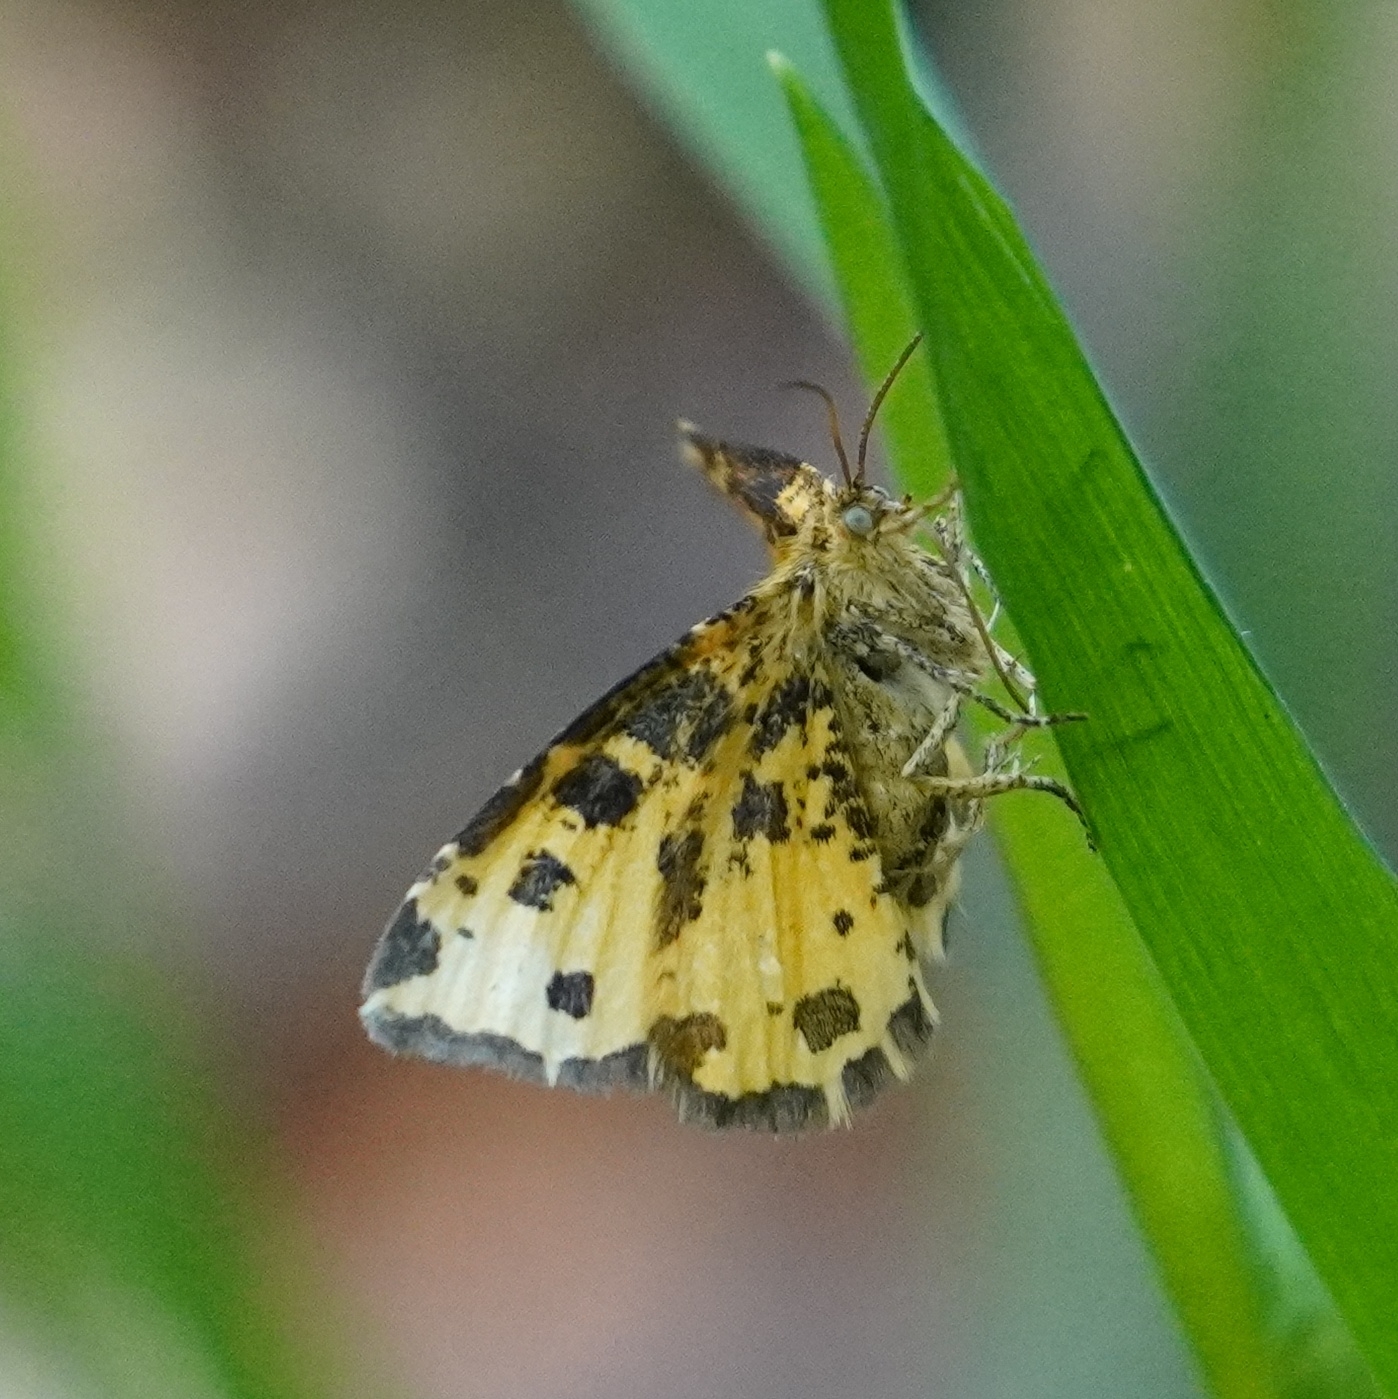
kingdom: Animalia
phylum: Arthropoda
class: Insecta
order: Lepidoptera
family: Geometridae
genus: Pseudopanthera
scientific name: Pseudopanthera macularia
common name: Speckled yellow
